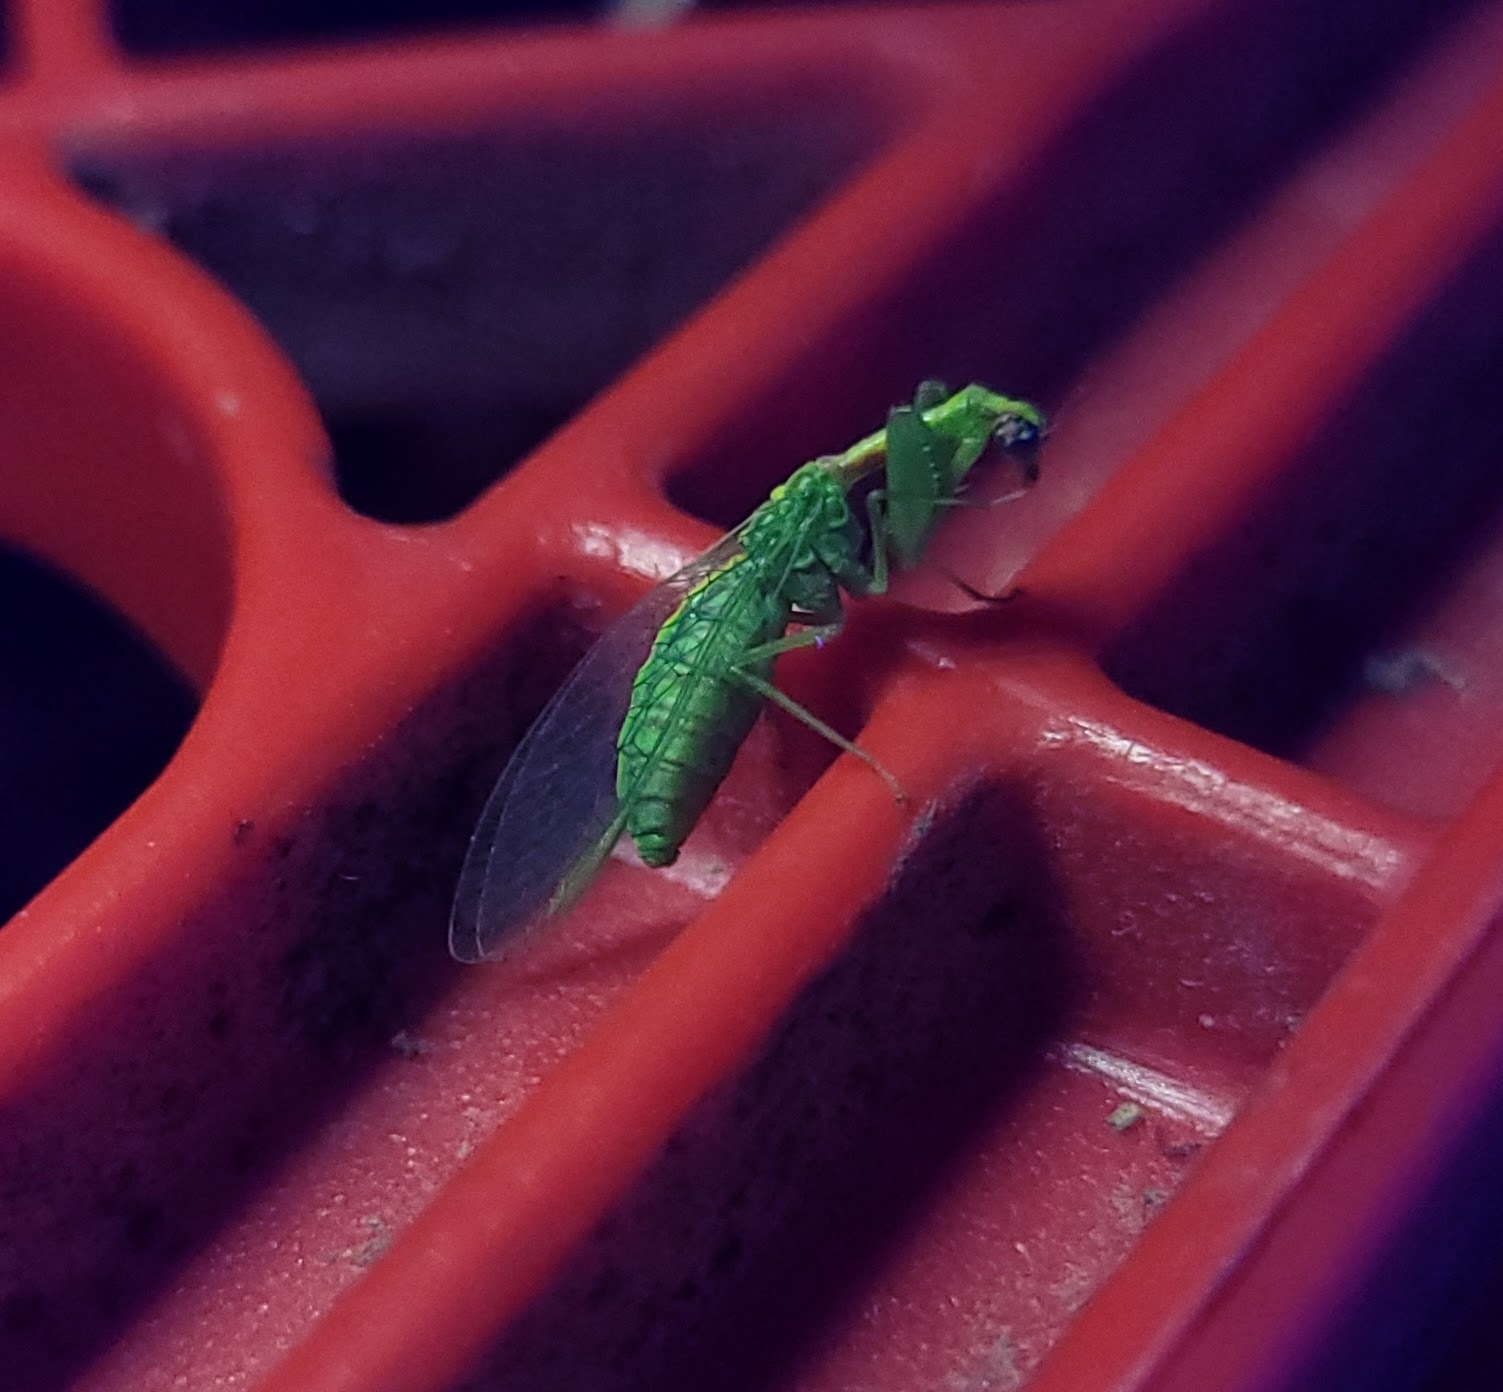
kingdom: Animalia
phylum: Arthropoda
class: Insecta
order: Neuroptera
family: Mantispidae
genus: Zeugomantispa
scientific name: Zeugomantispa minuta
